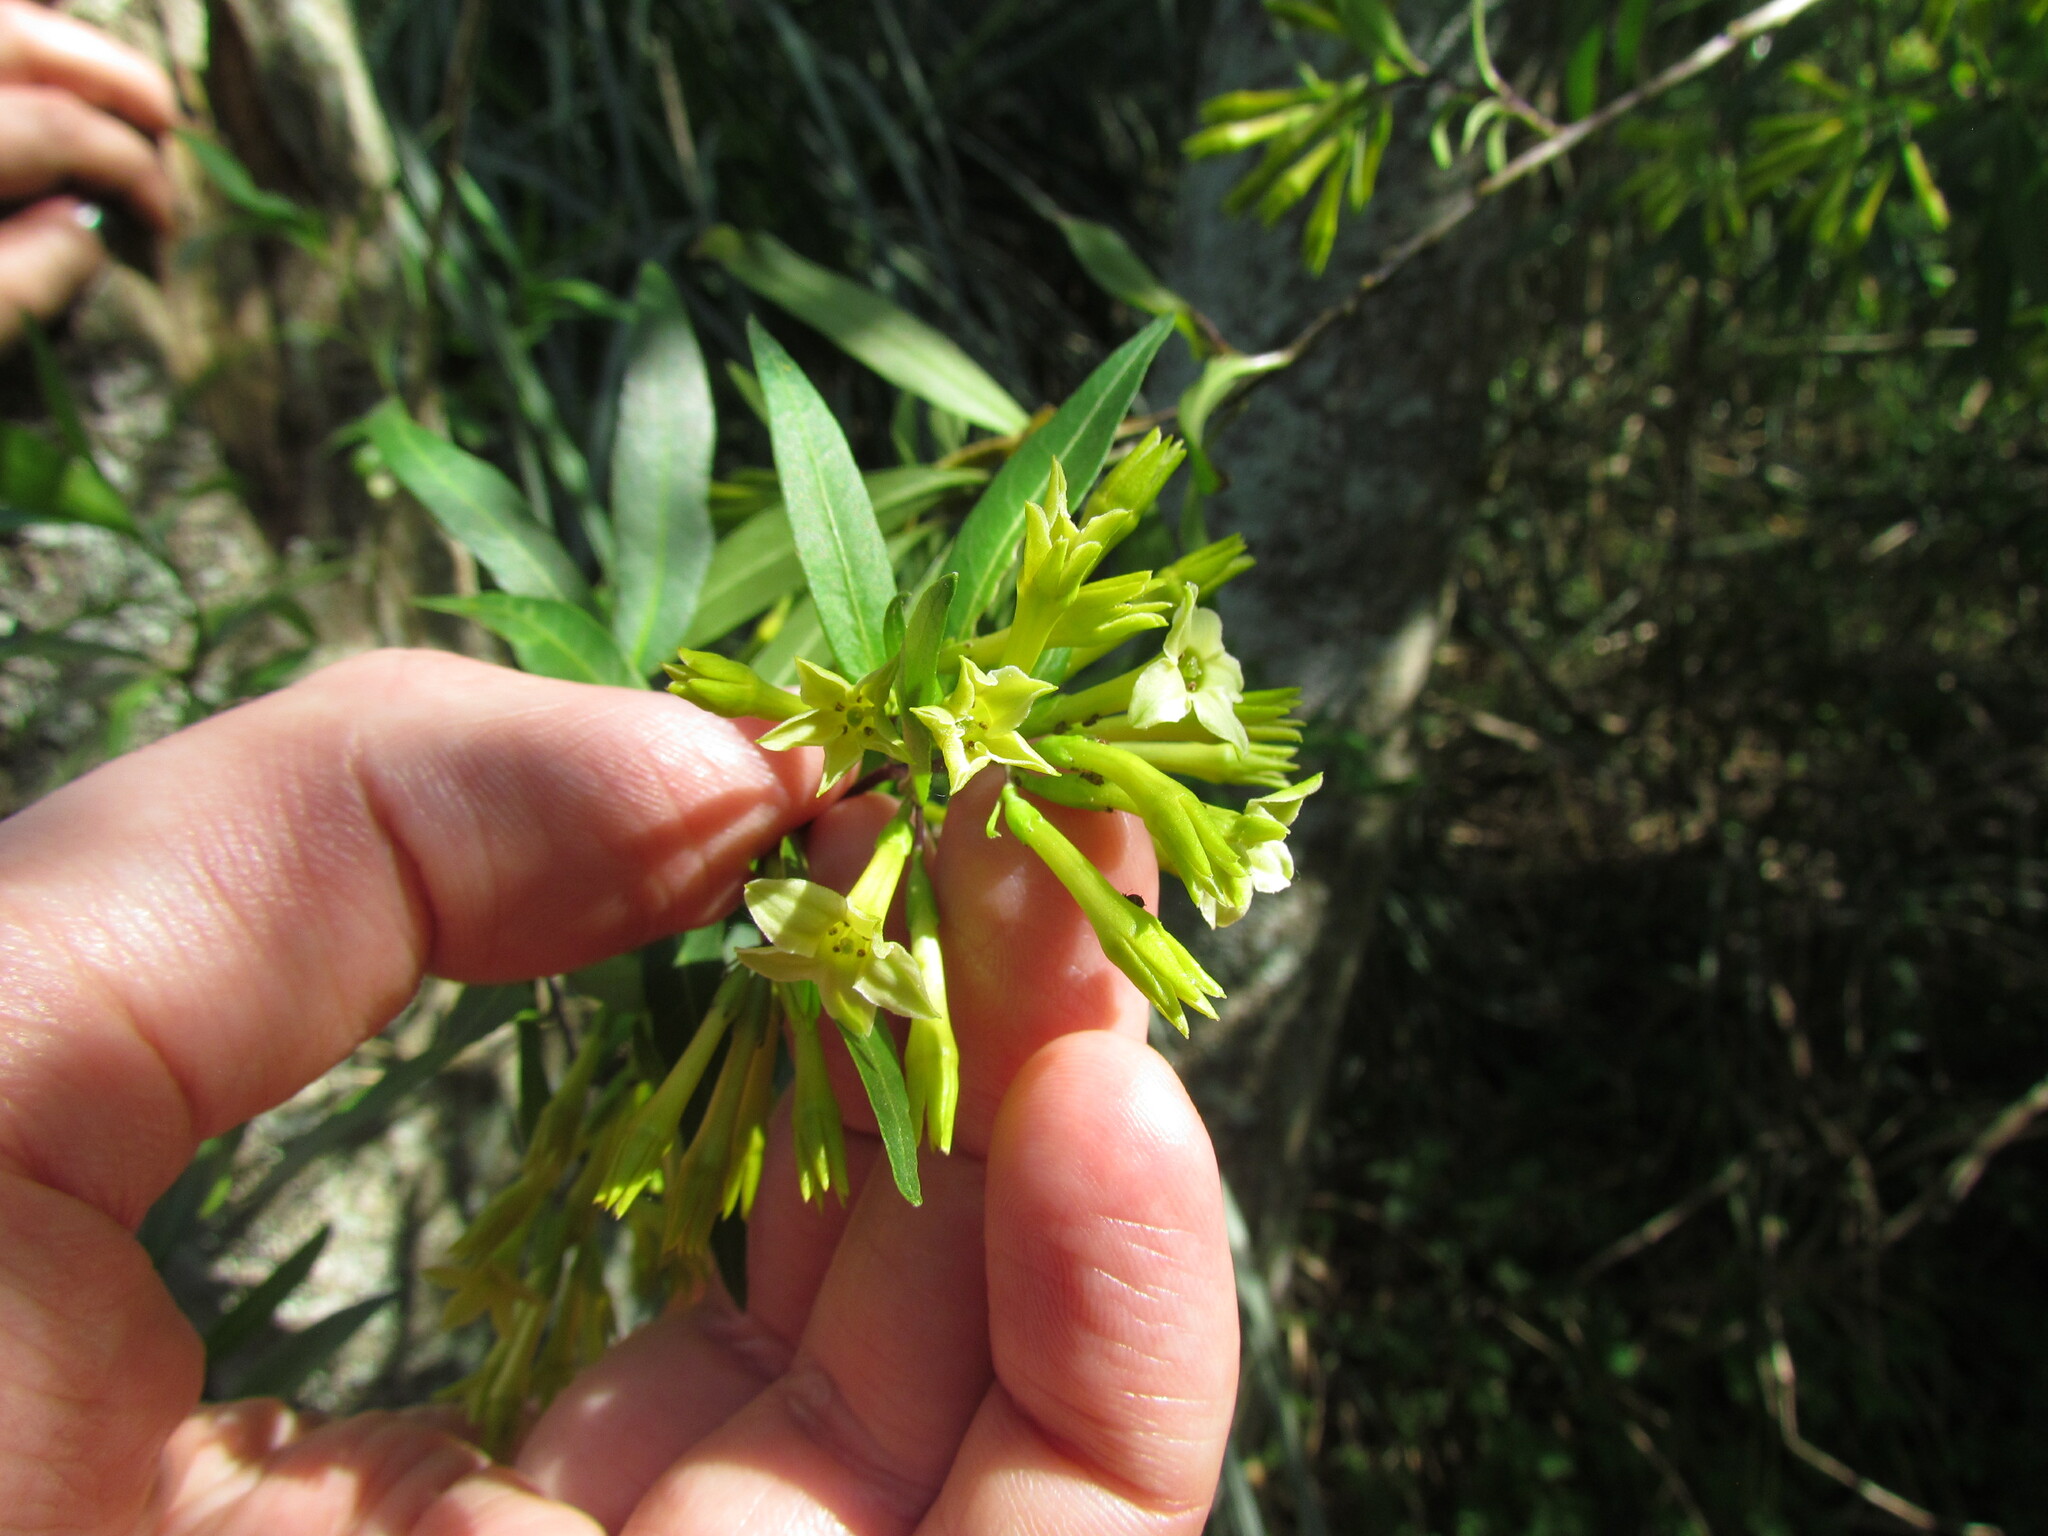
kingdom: Plantae
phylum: Tracheophyta
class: Magnoliopsida
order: Solanales
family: Solanaceae
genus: Cestrum
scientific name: Cestrum parqui
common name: Chilean cestrum
